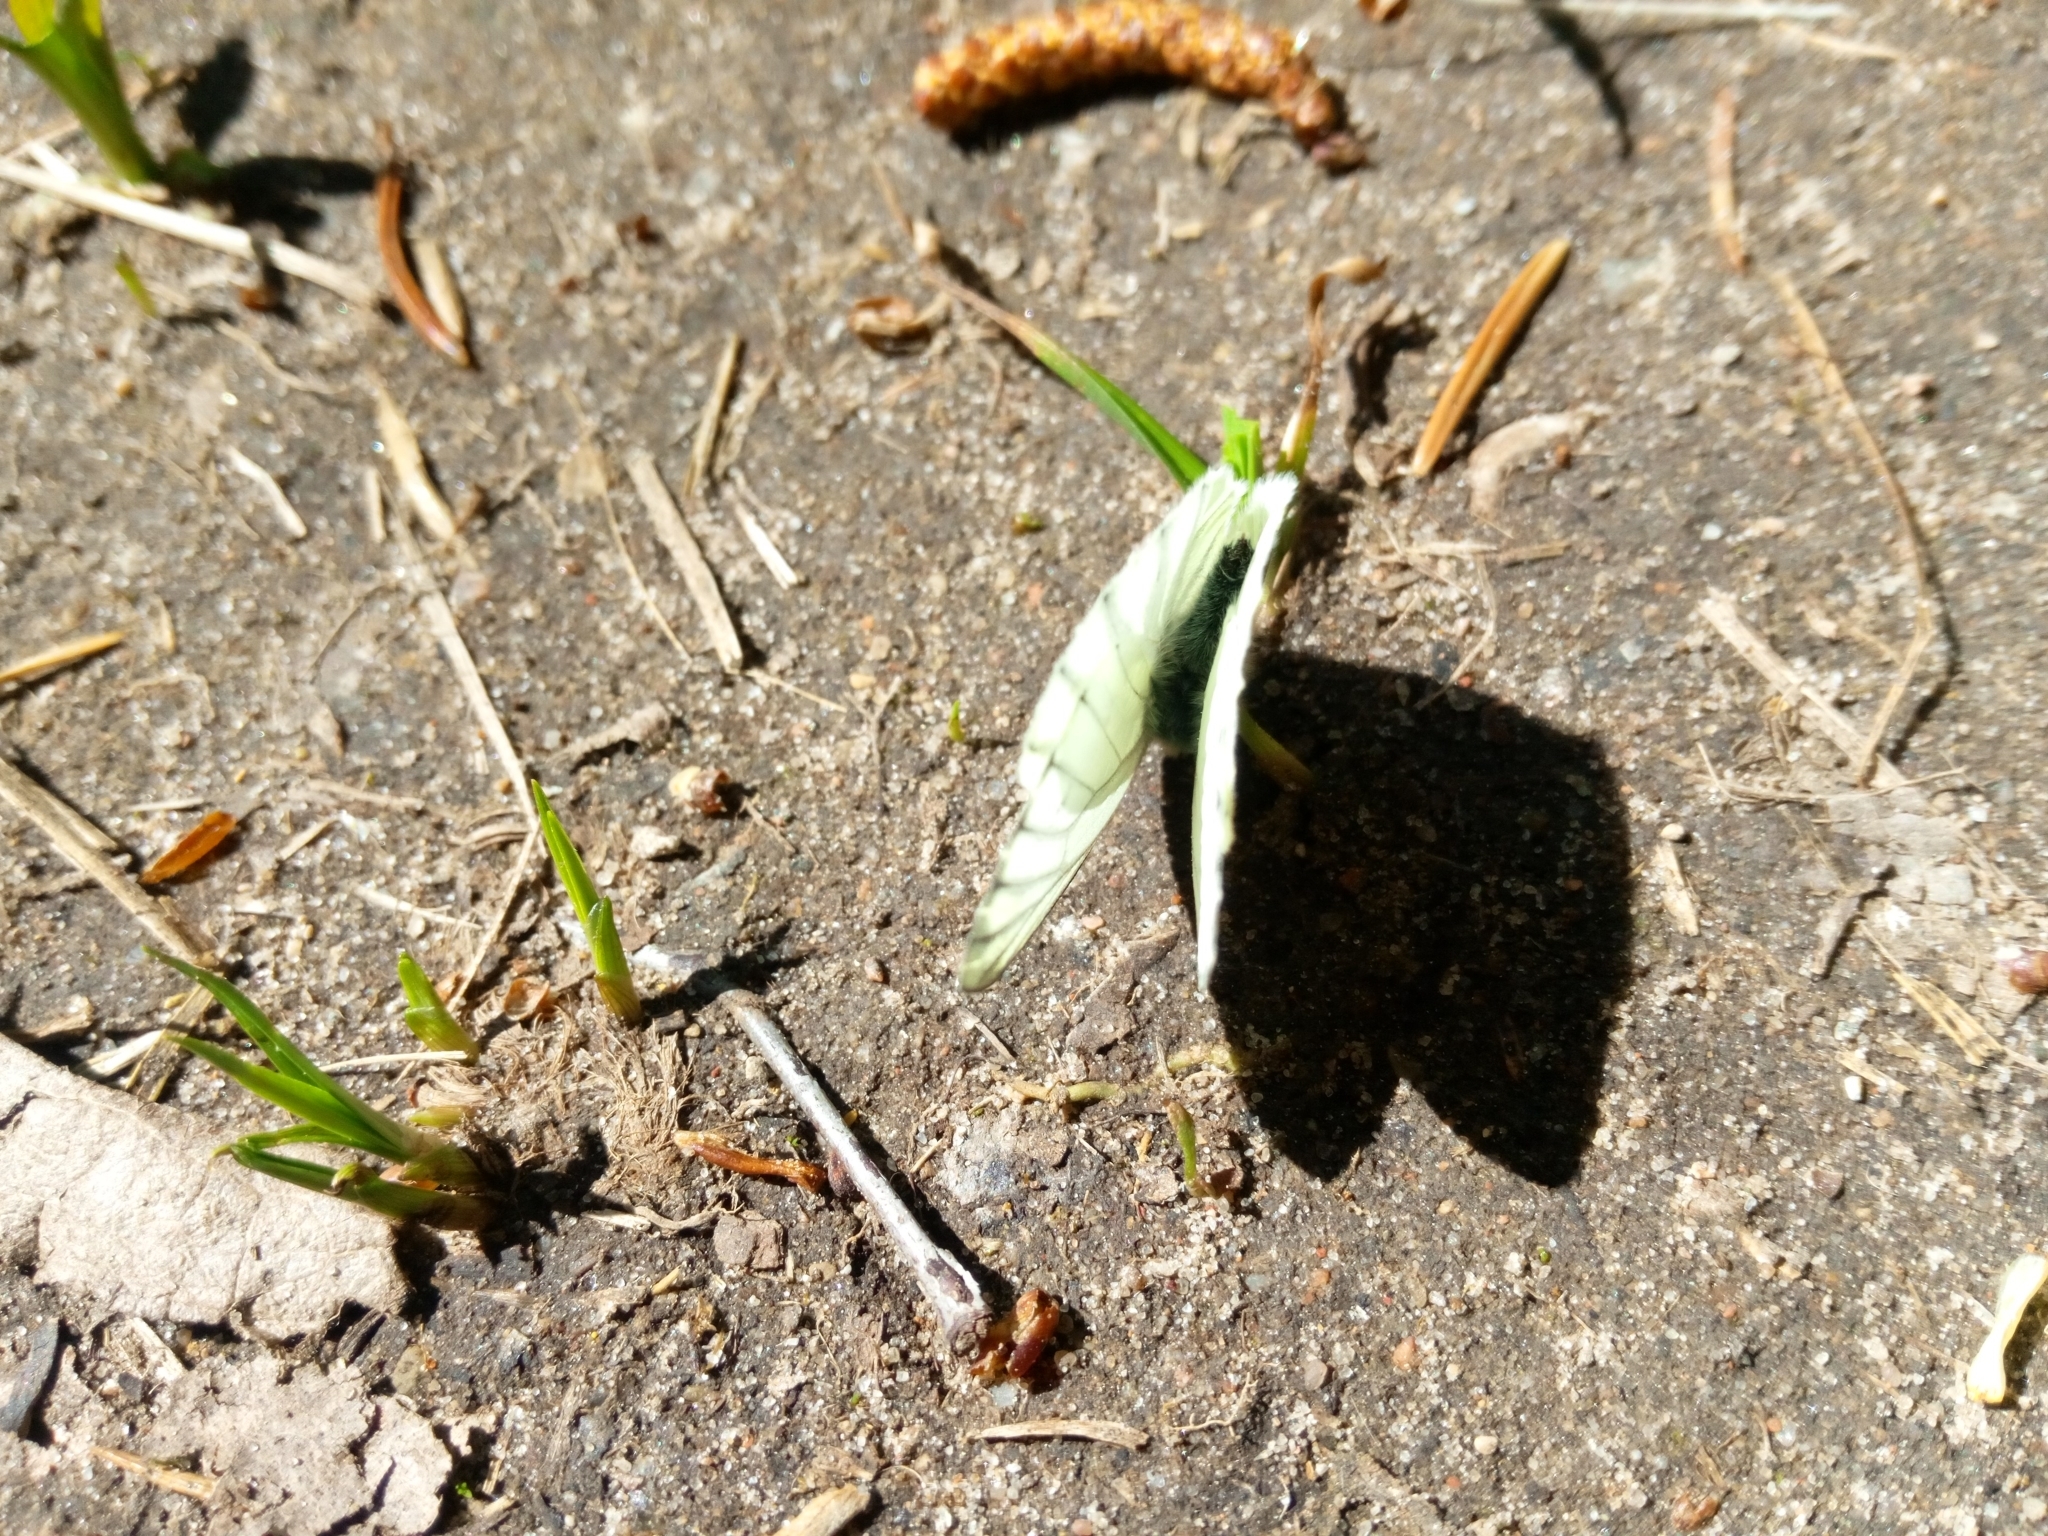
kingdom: Animalia
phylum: Arthropoda
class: Insecta
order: Lepidoptera
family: Pieridae
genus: Pieris
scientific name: Pieris napi
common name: Green-veined white
